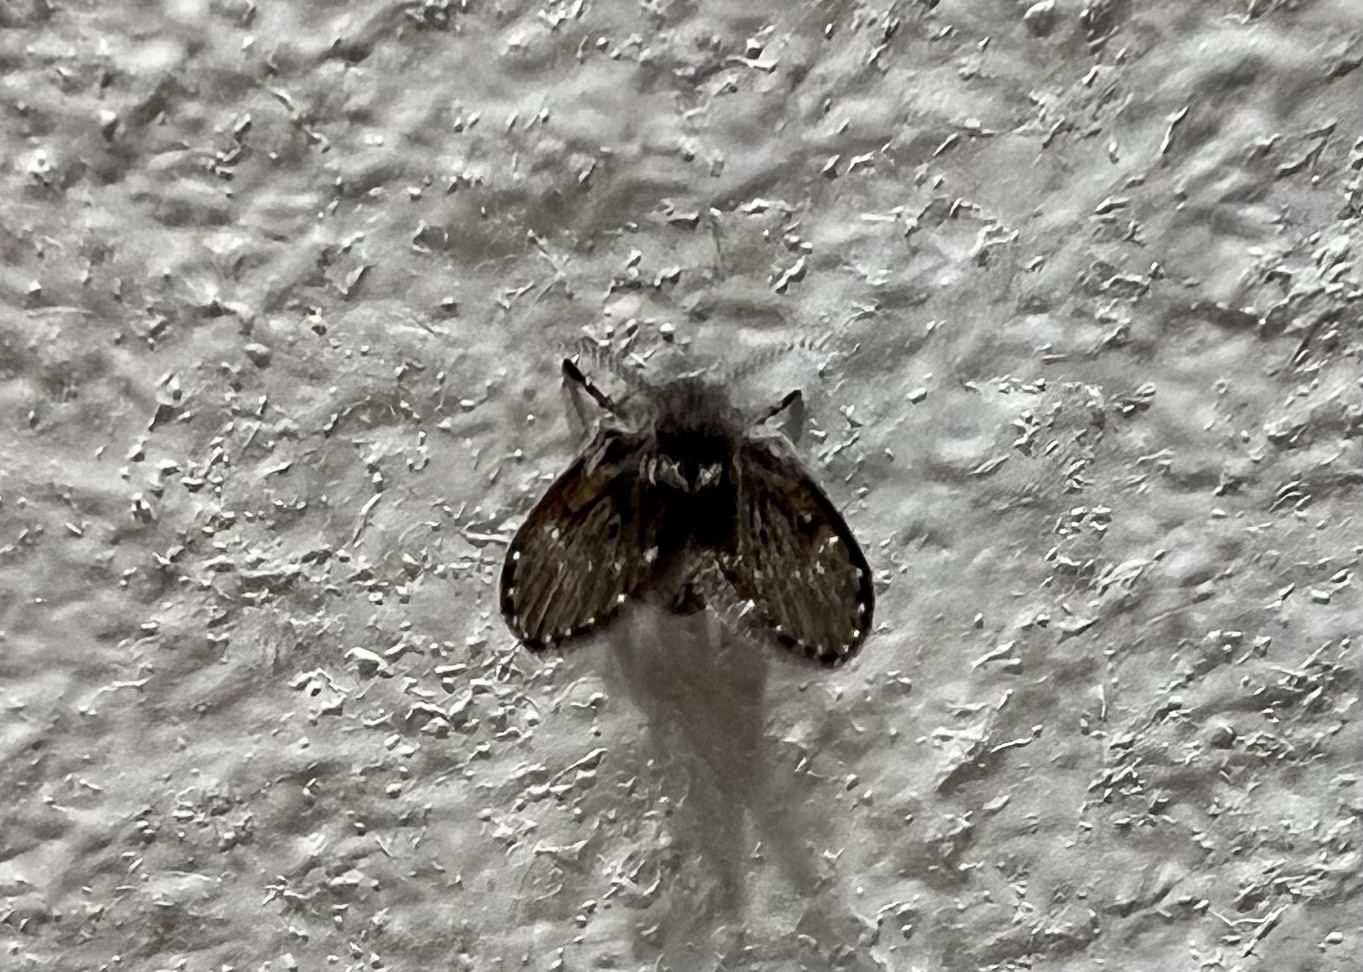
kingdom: Animalia
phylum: Arthropoda
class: Insecta
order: Diptera
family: Psychodidae
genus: Clogmia
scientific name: Clogmia albipunctatus
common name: White-spotted moth fly
